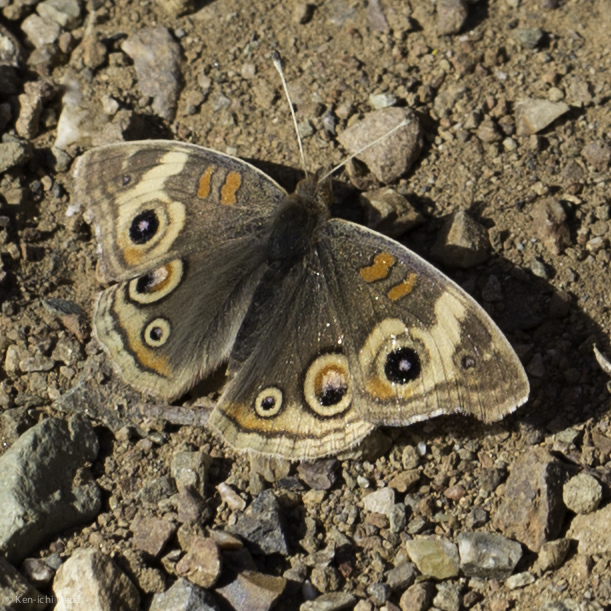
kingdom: Animalia
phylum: Arthropoda
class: Insecta
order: Lepidoptera
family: Nymphalidae
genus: Junonia
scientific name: Junonia grisea
